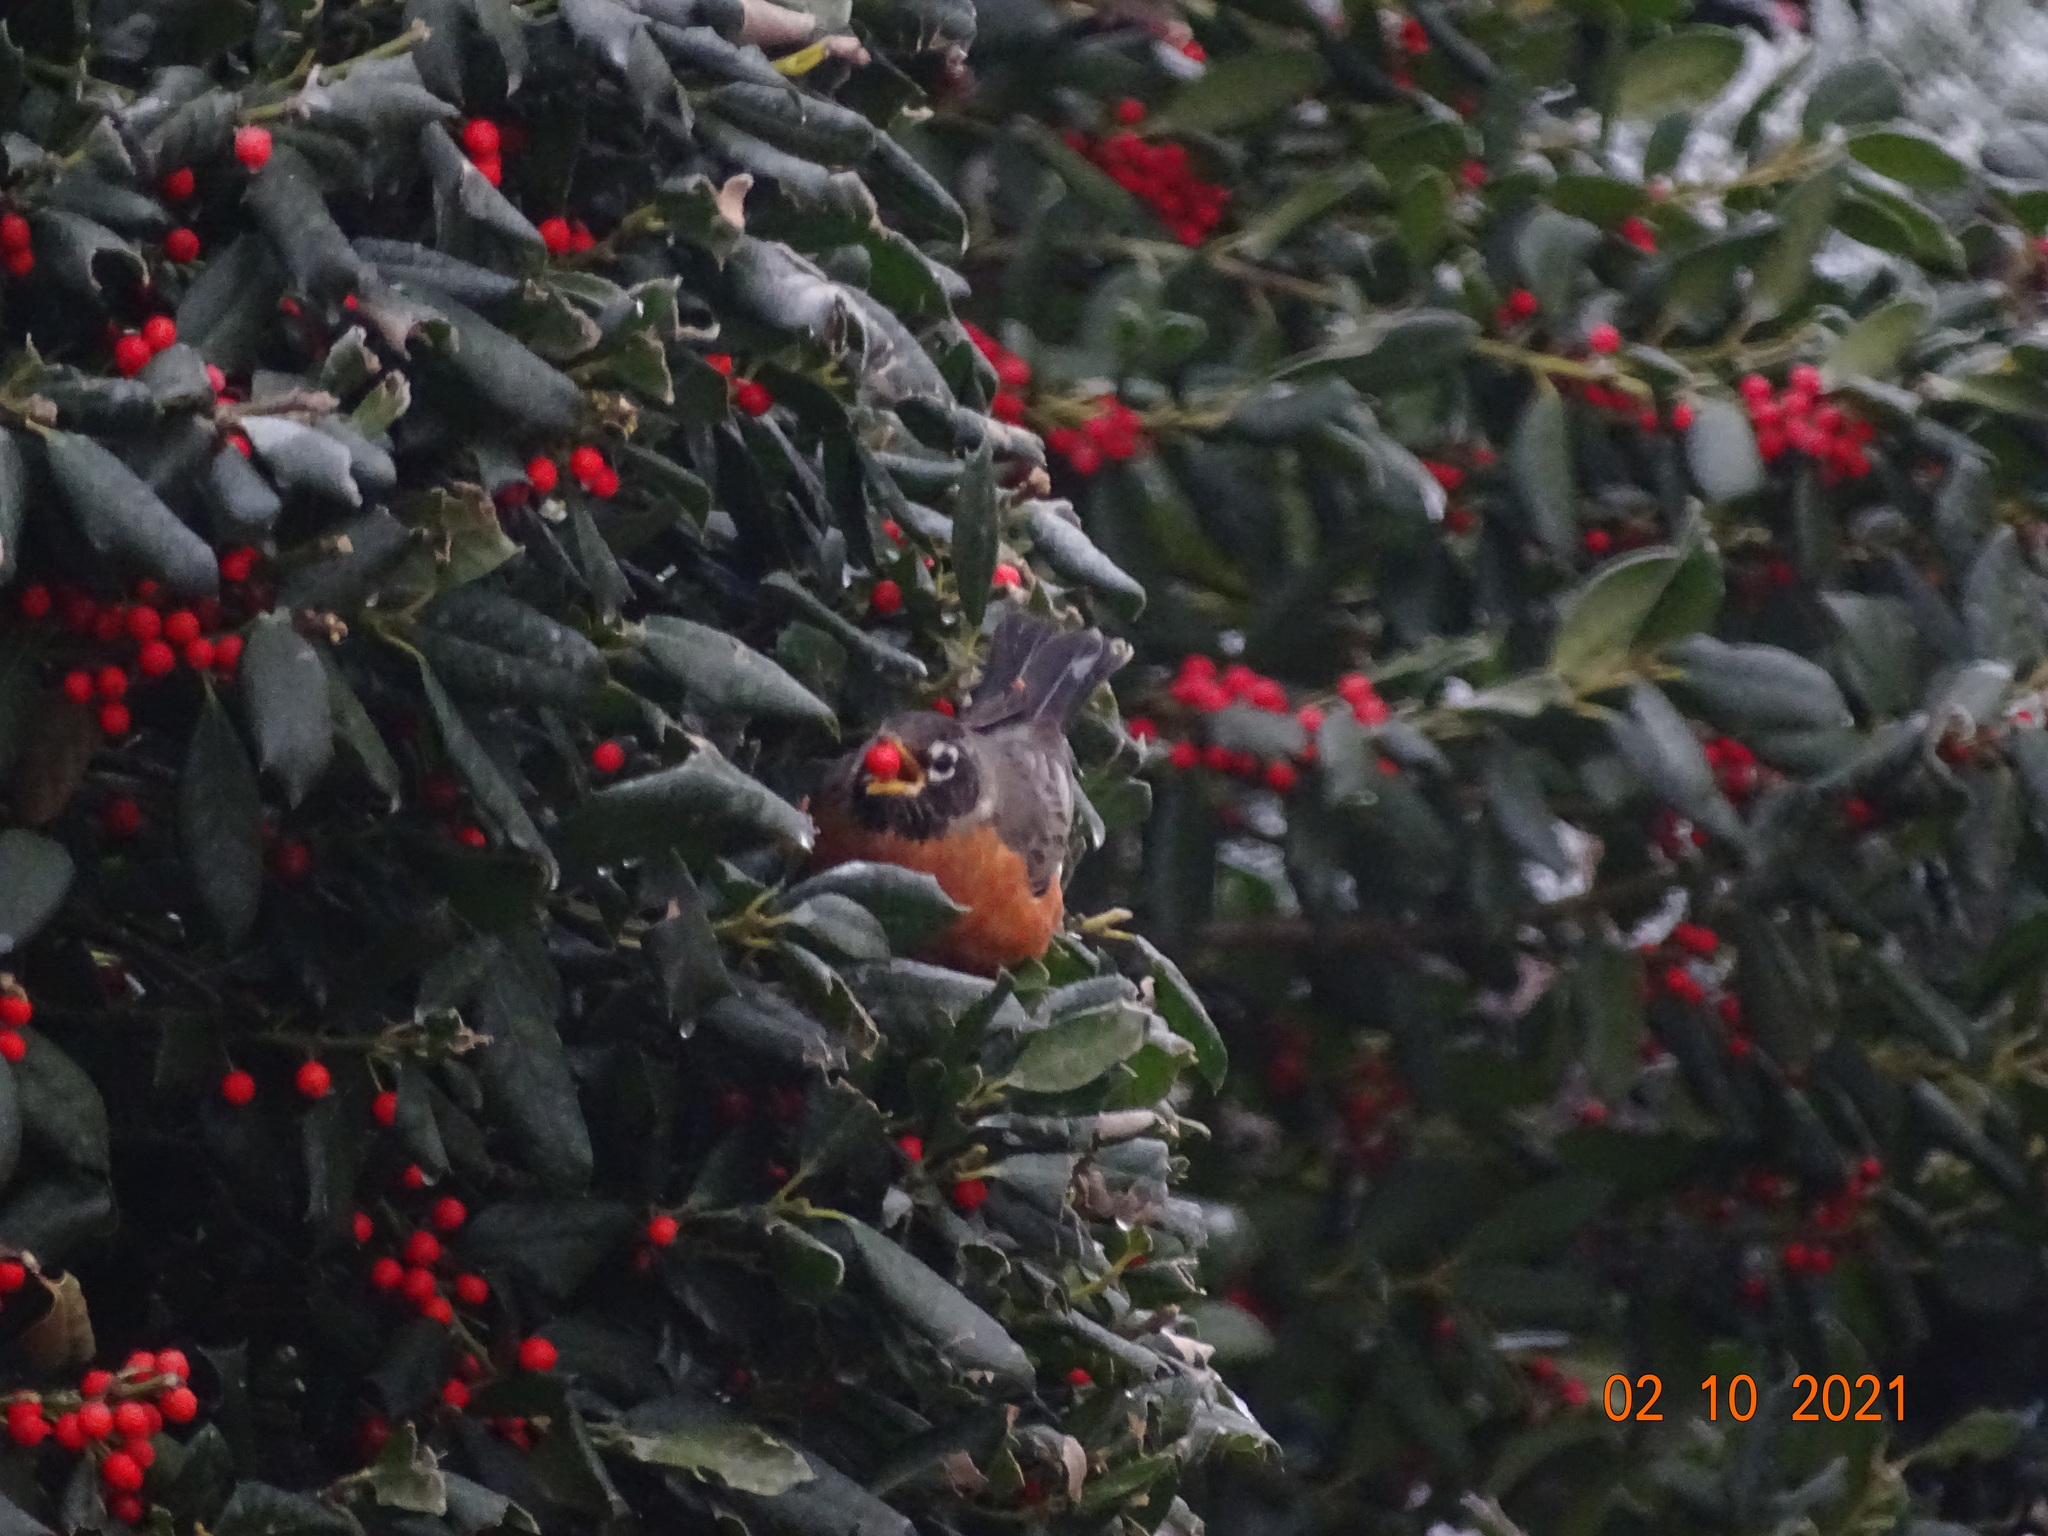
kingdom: Animalia
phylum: Chordata
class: Aves
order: Passeriformes
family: Turdidae
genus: Turdus
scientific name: Turdus migratorius
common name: American robin
